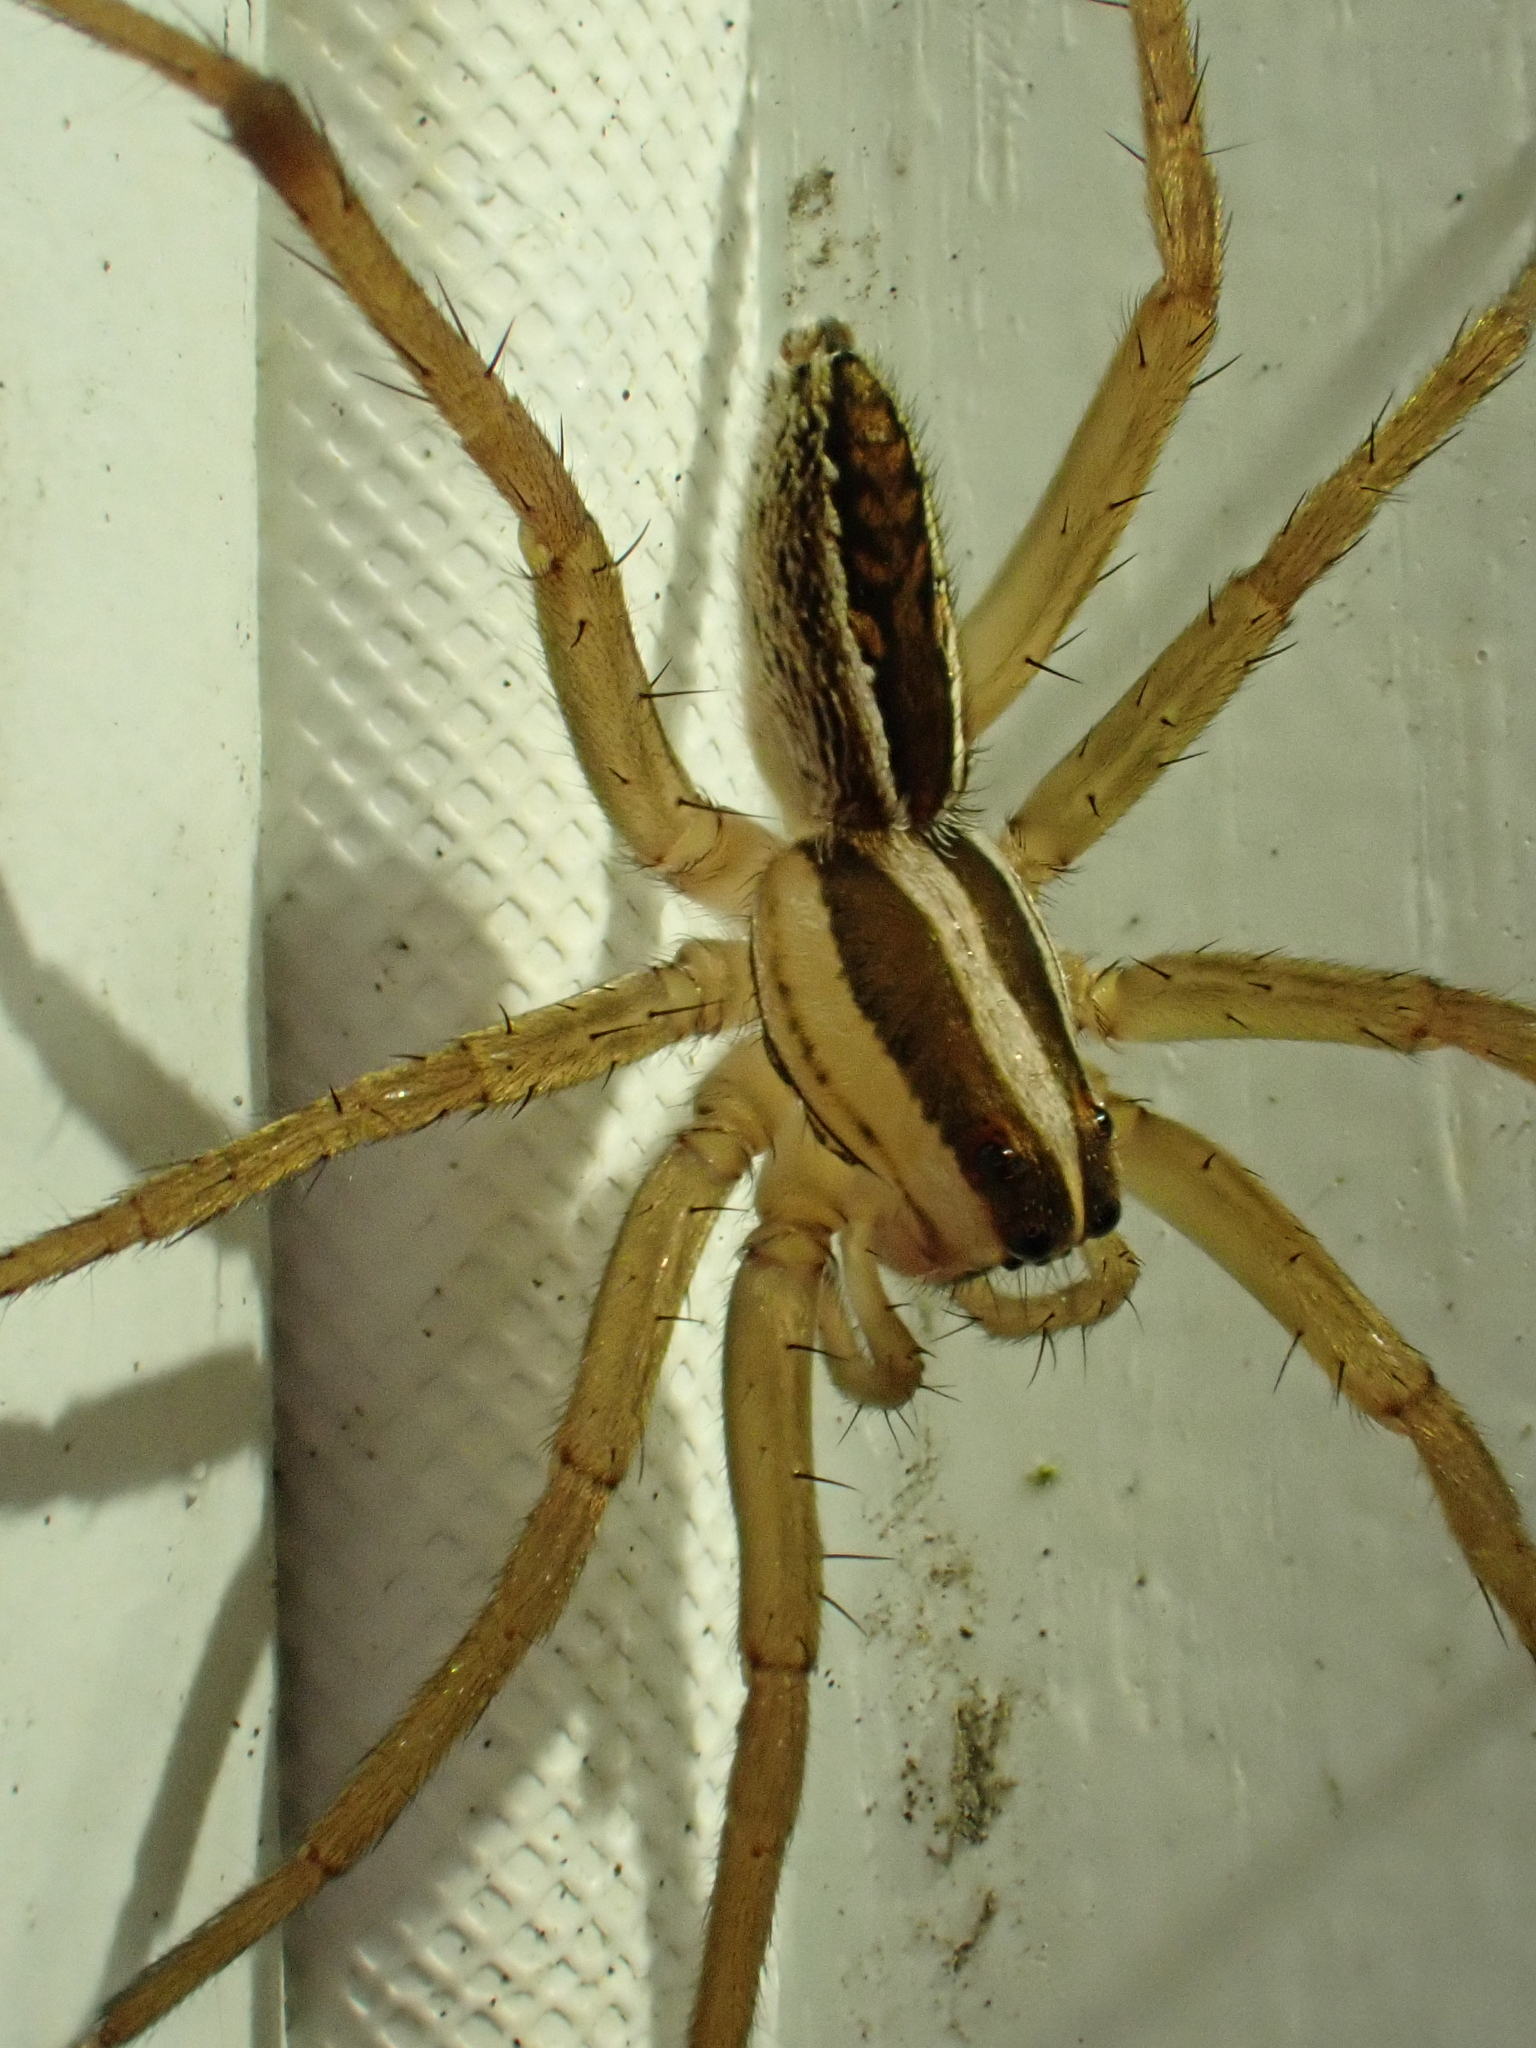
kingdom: Animalia
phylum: Arthropoda
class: Arachnida
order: Araneae
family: Lycosidae
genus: Rabidosa
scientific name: Rabidosa rabida
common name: Rabid wolf spider
